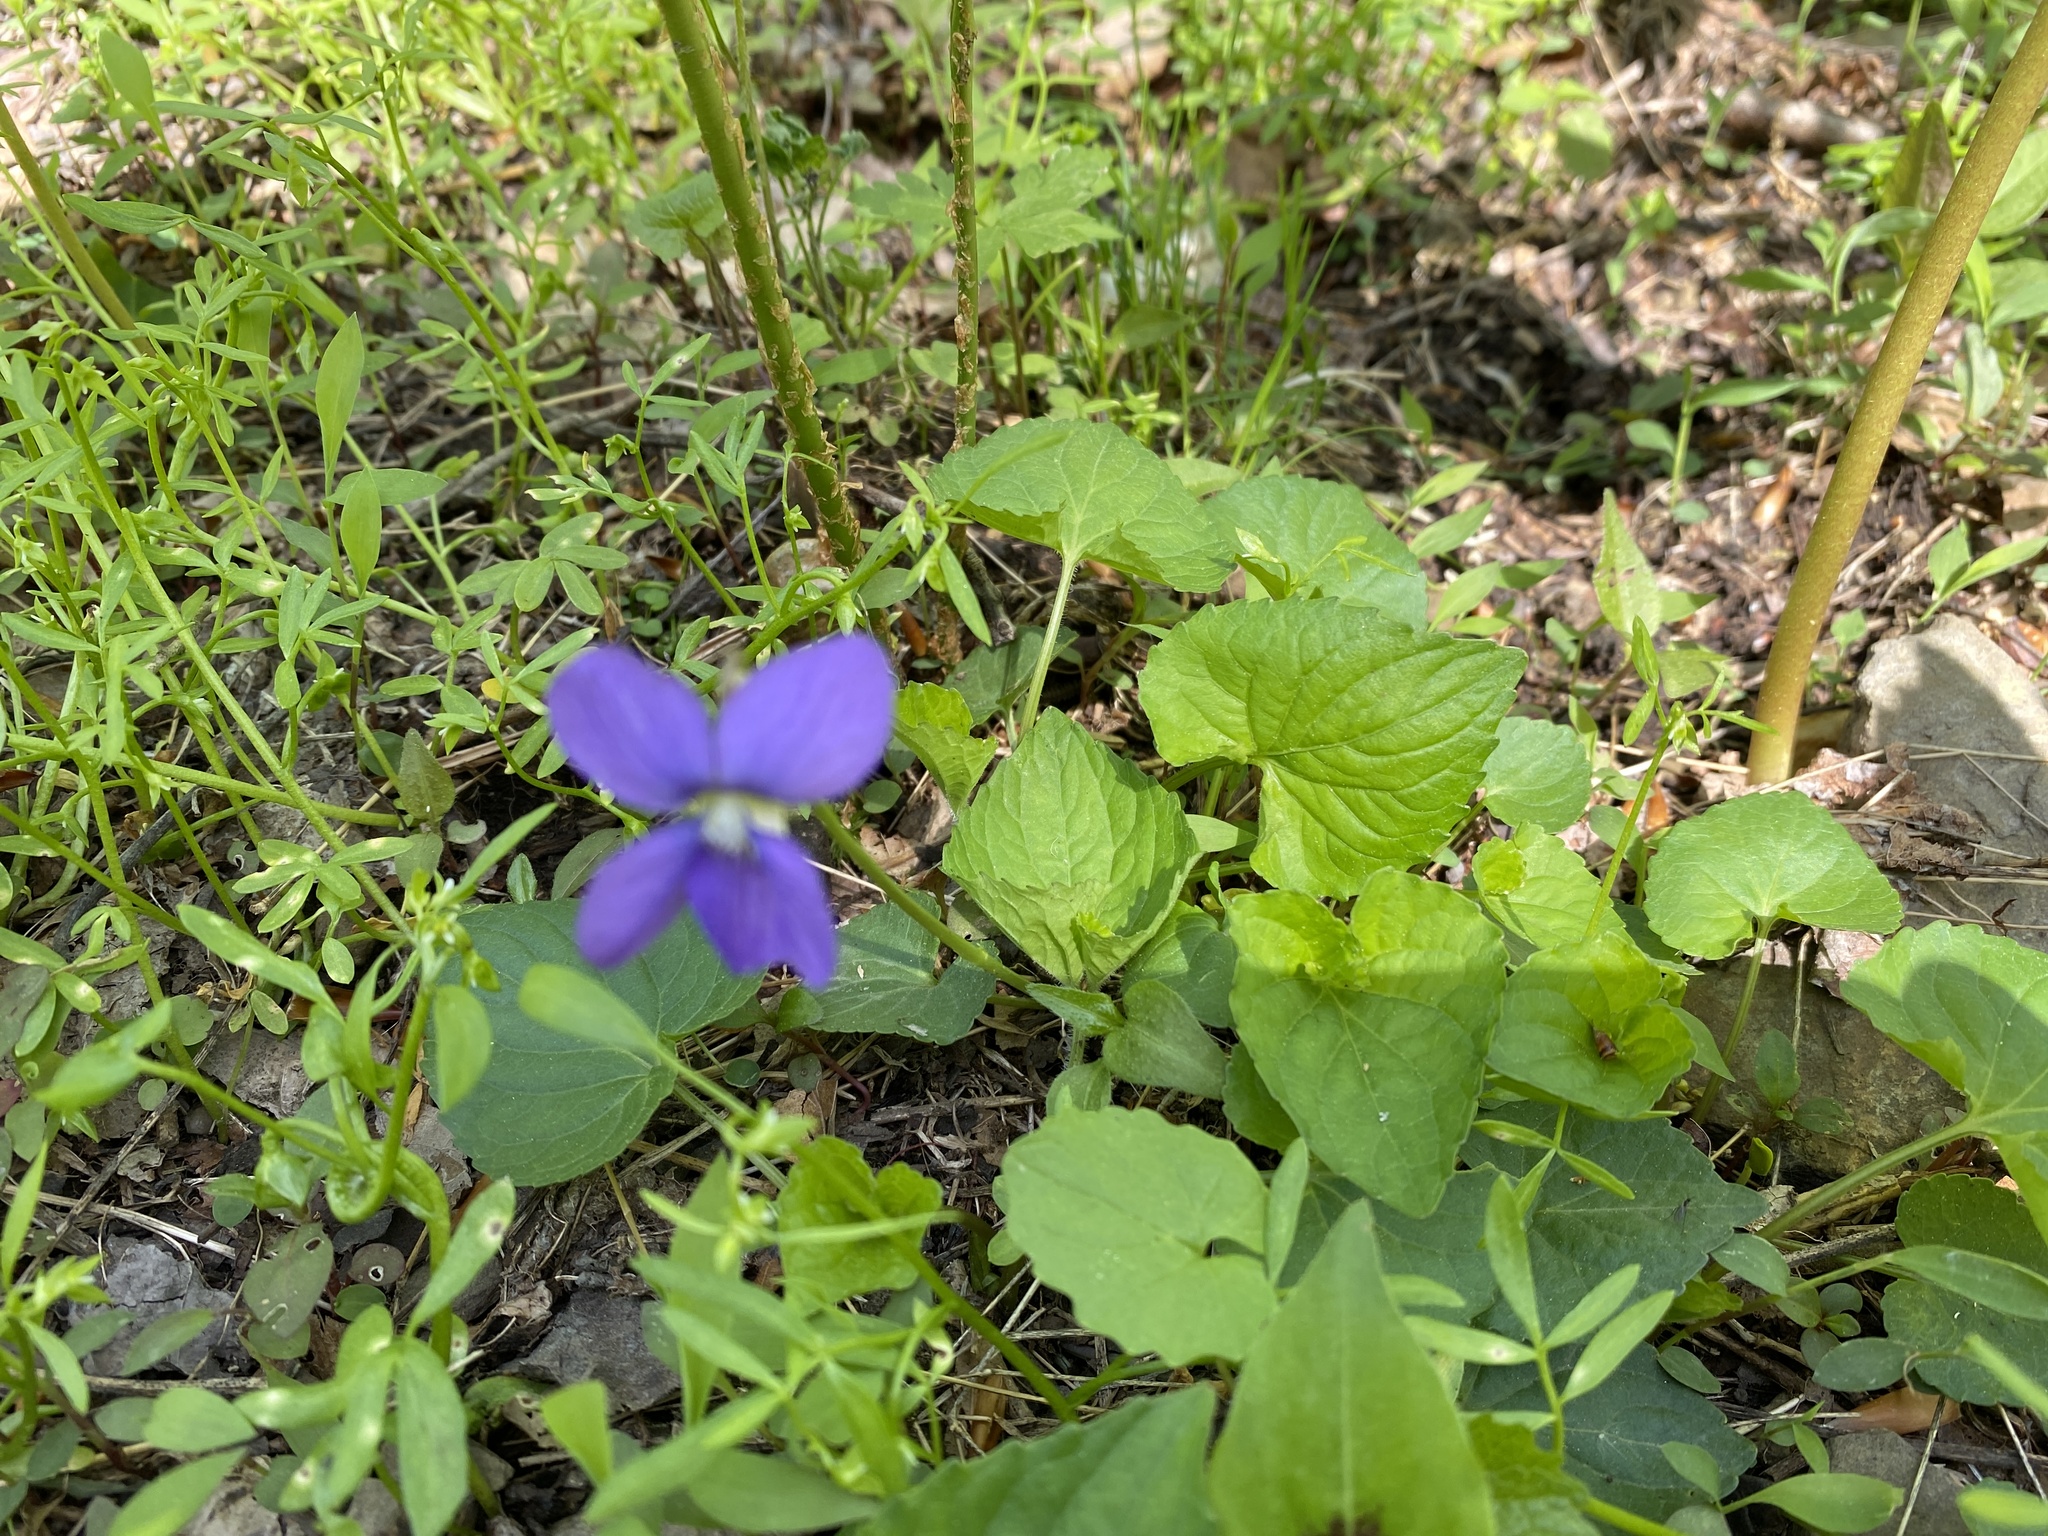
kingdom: Plantae
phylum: Tracheophyta
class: Magnoliopsida
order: Malpighiales
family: Violaceae
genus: Viola
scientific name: Viola sororia
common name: Dooryard violet
